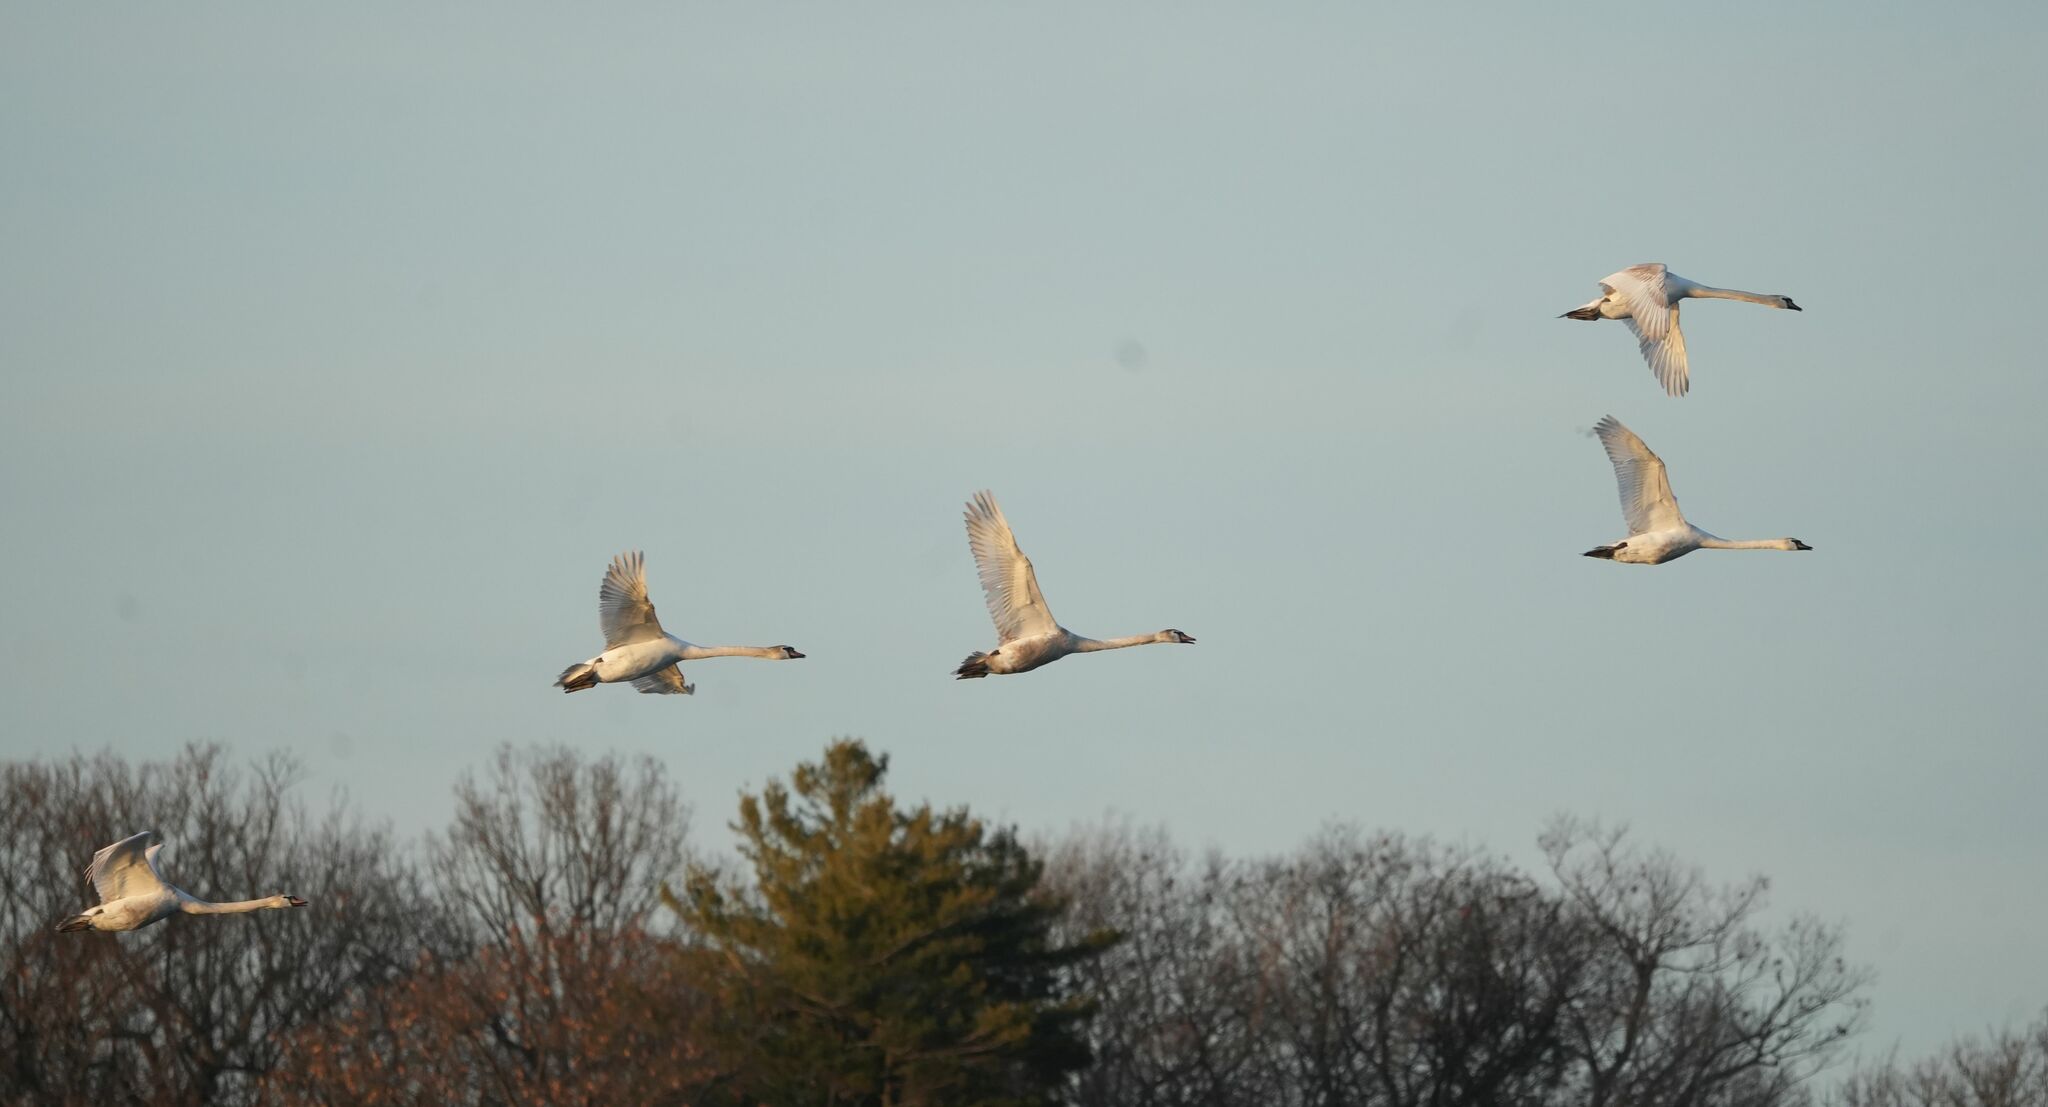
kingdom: Animalia
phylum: Chordata
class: Aves
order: Anseriformes
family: Anatidae
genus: Cygnus
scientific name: Cygnus olor
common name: Mute swan
